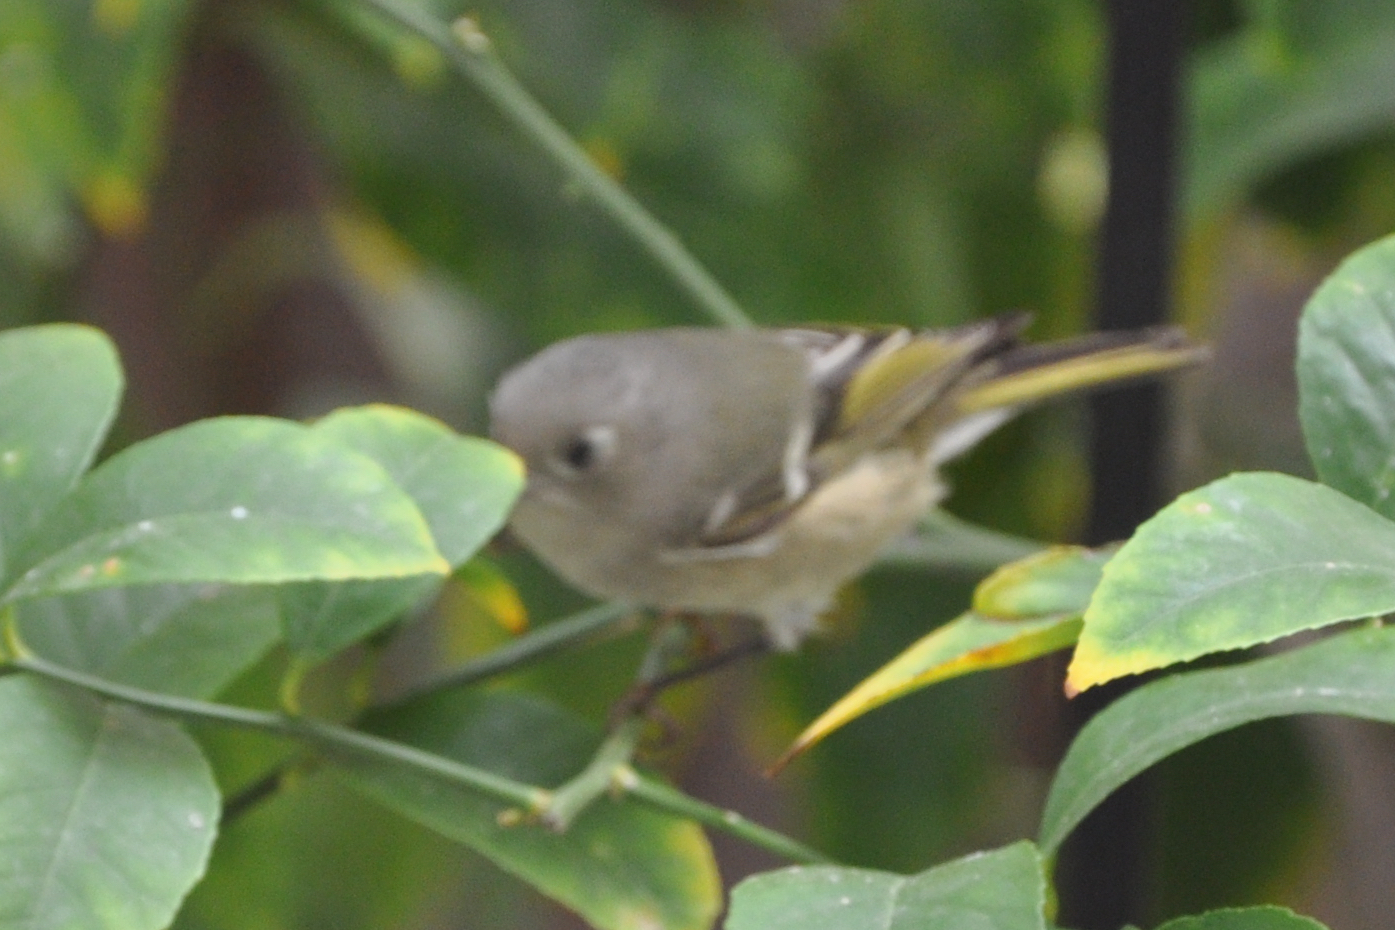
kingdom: Animalia
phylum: Chordata
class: Aves
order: Passeriformes
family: Regulidae
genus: Regulus
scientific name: Regulus calendula
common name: Ruby-crowned kinglet
